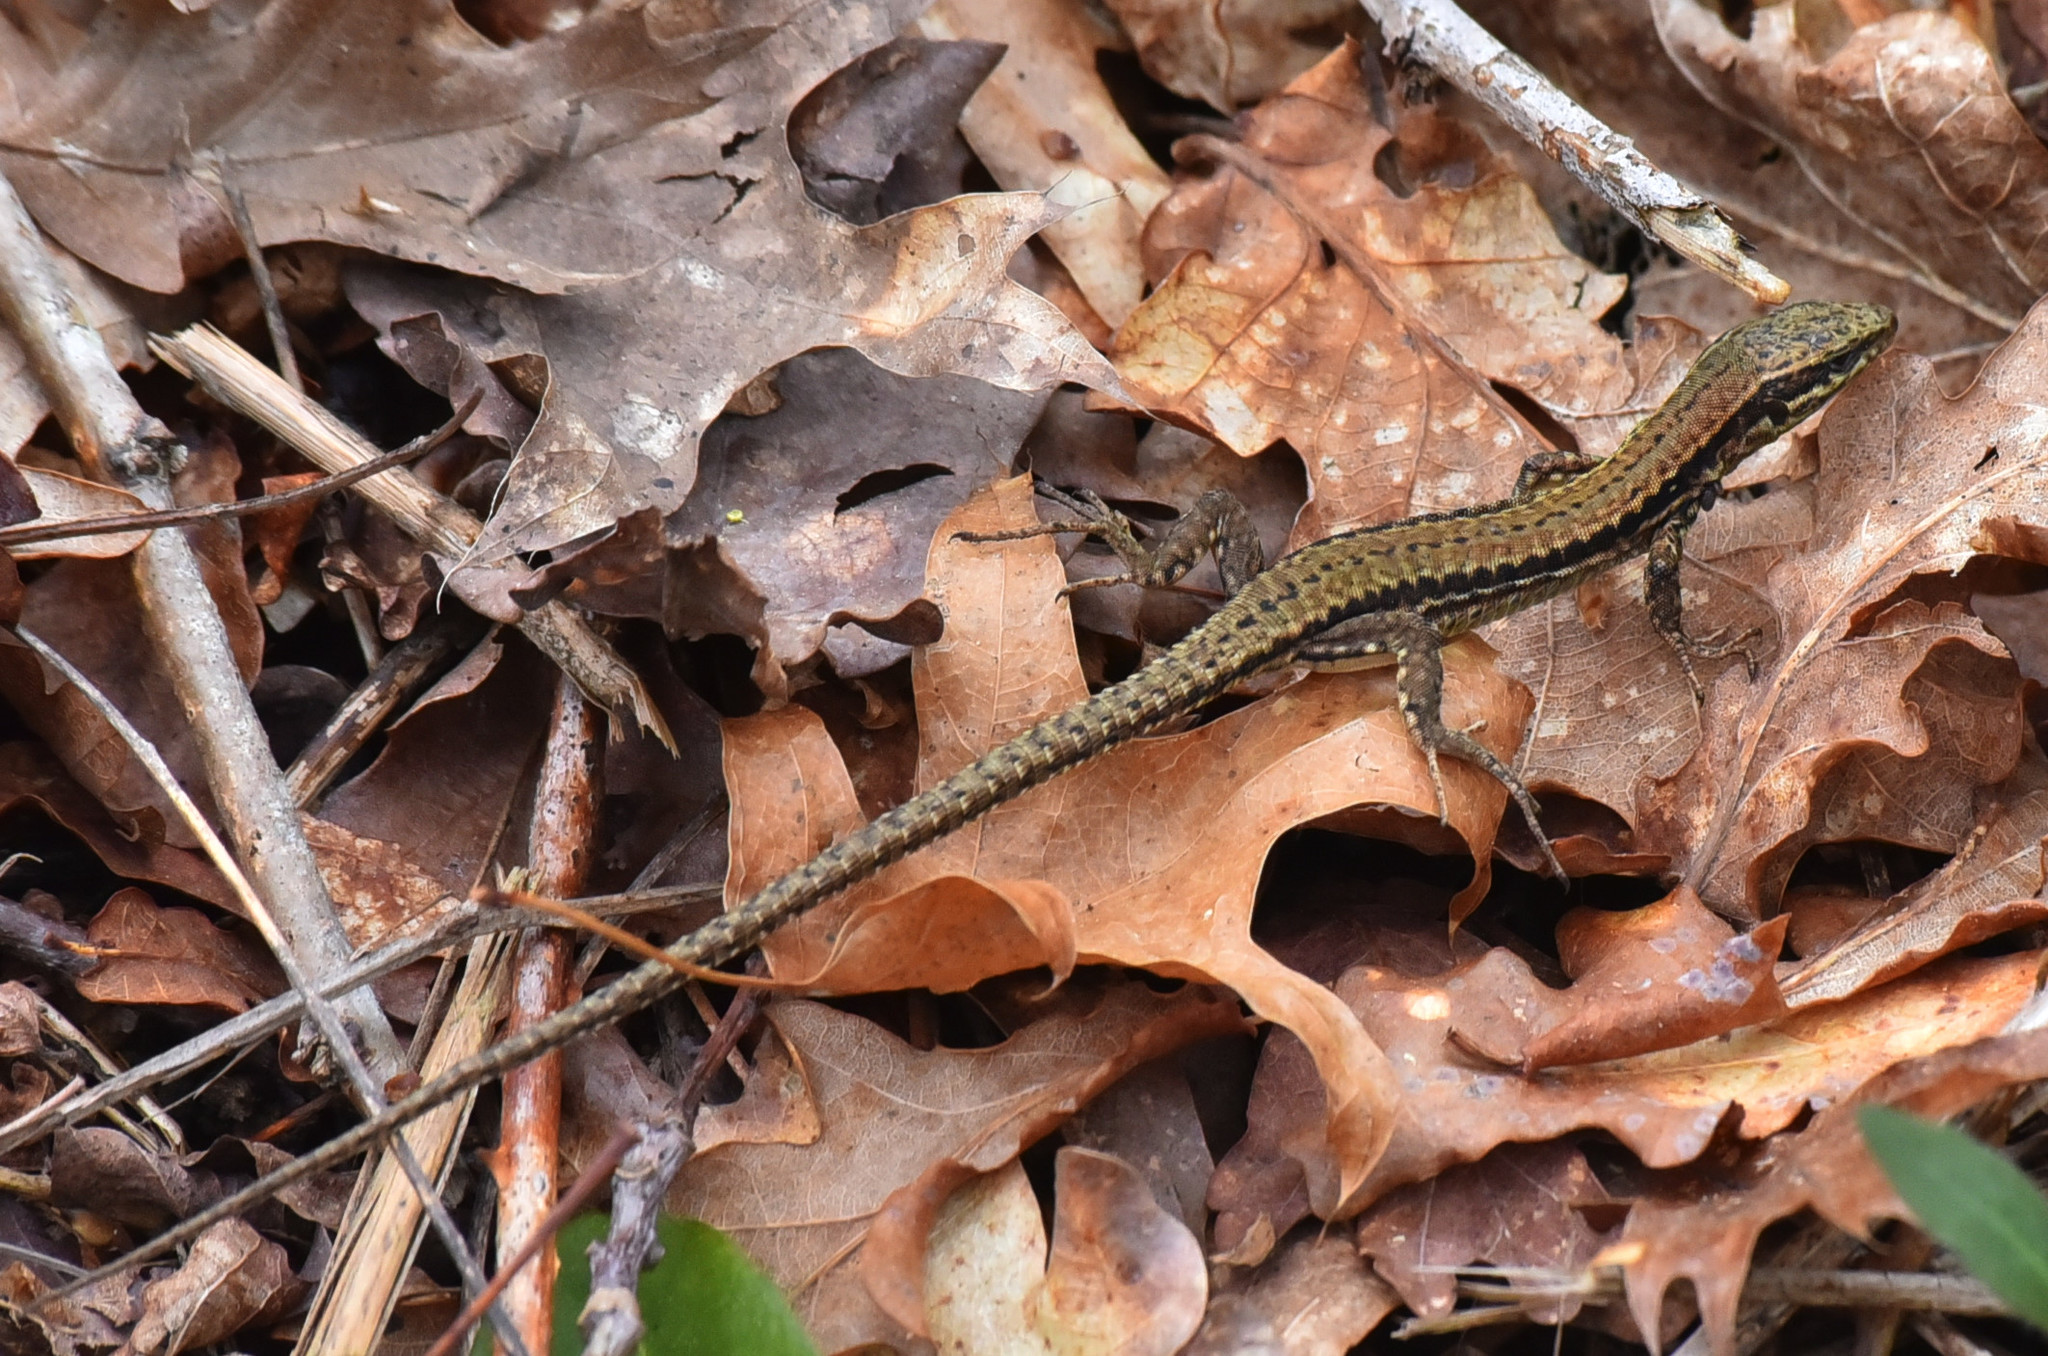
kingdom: Animalia
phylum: Chordata
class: Squamata
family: Lacertidae
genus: Podarcis
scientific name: Podarcis muralis
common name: Common wall lizard
